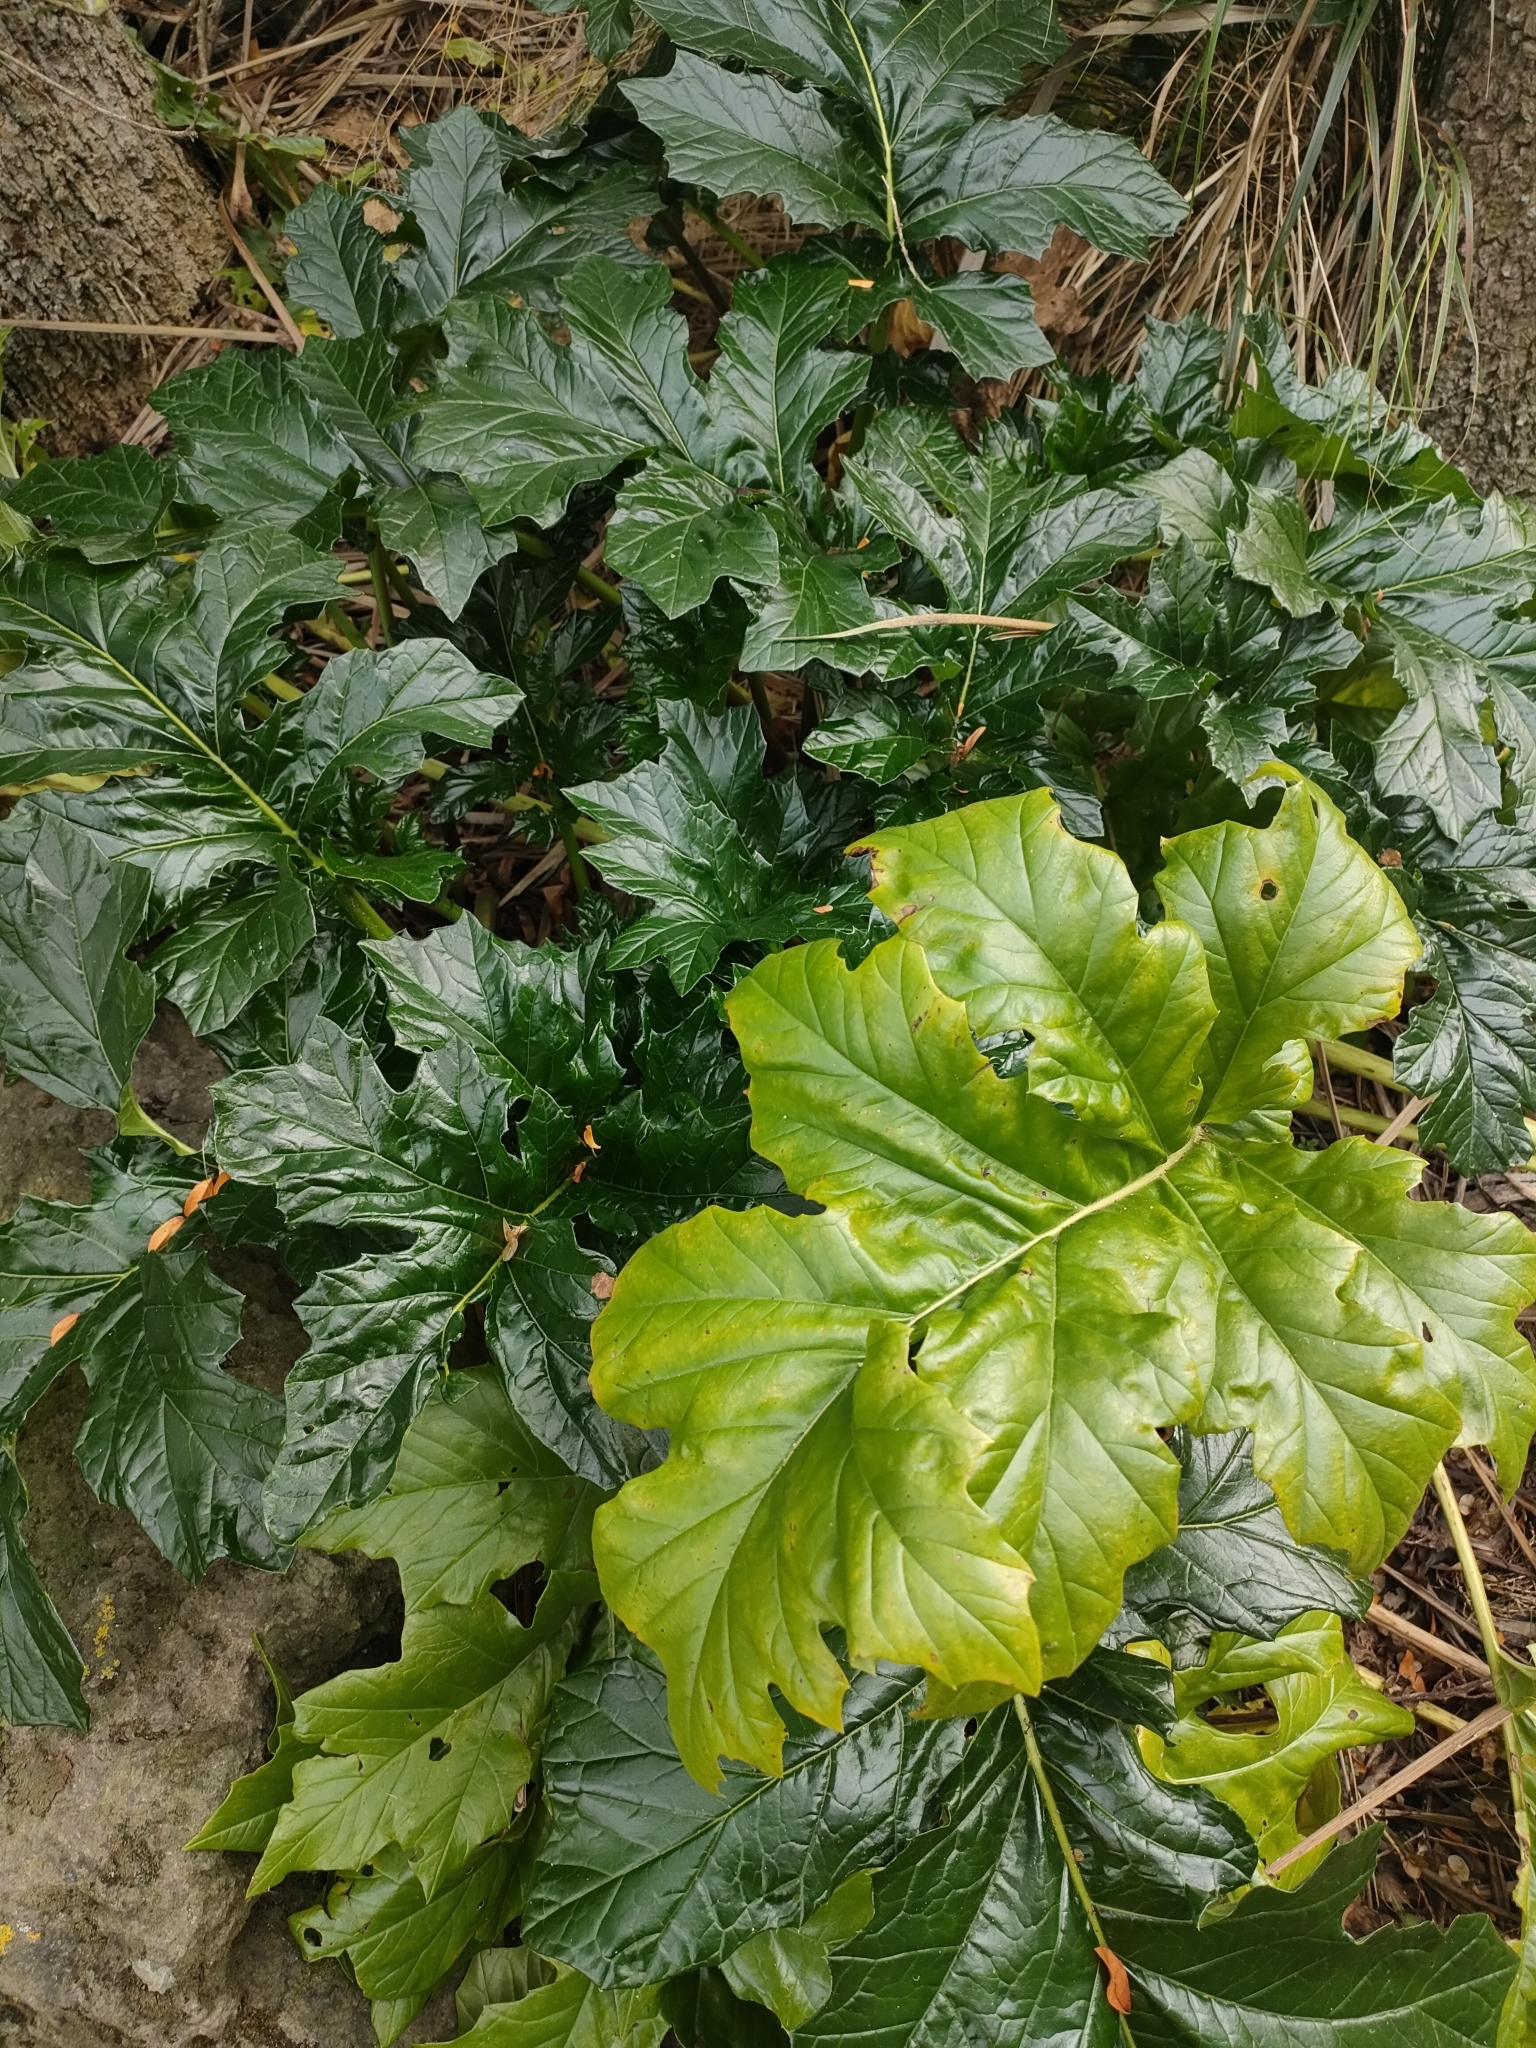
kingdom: Plantae
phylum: Tracheophyta
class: Magnoliopsida
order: Lamiales
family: Acanthaceae
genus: Acanthus
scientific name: Acanthus mollis
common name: Bear's-breech
